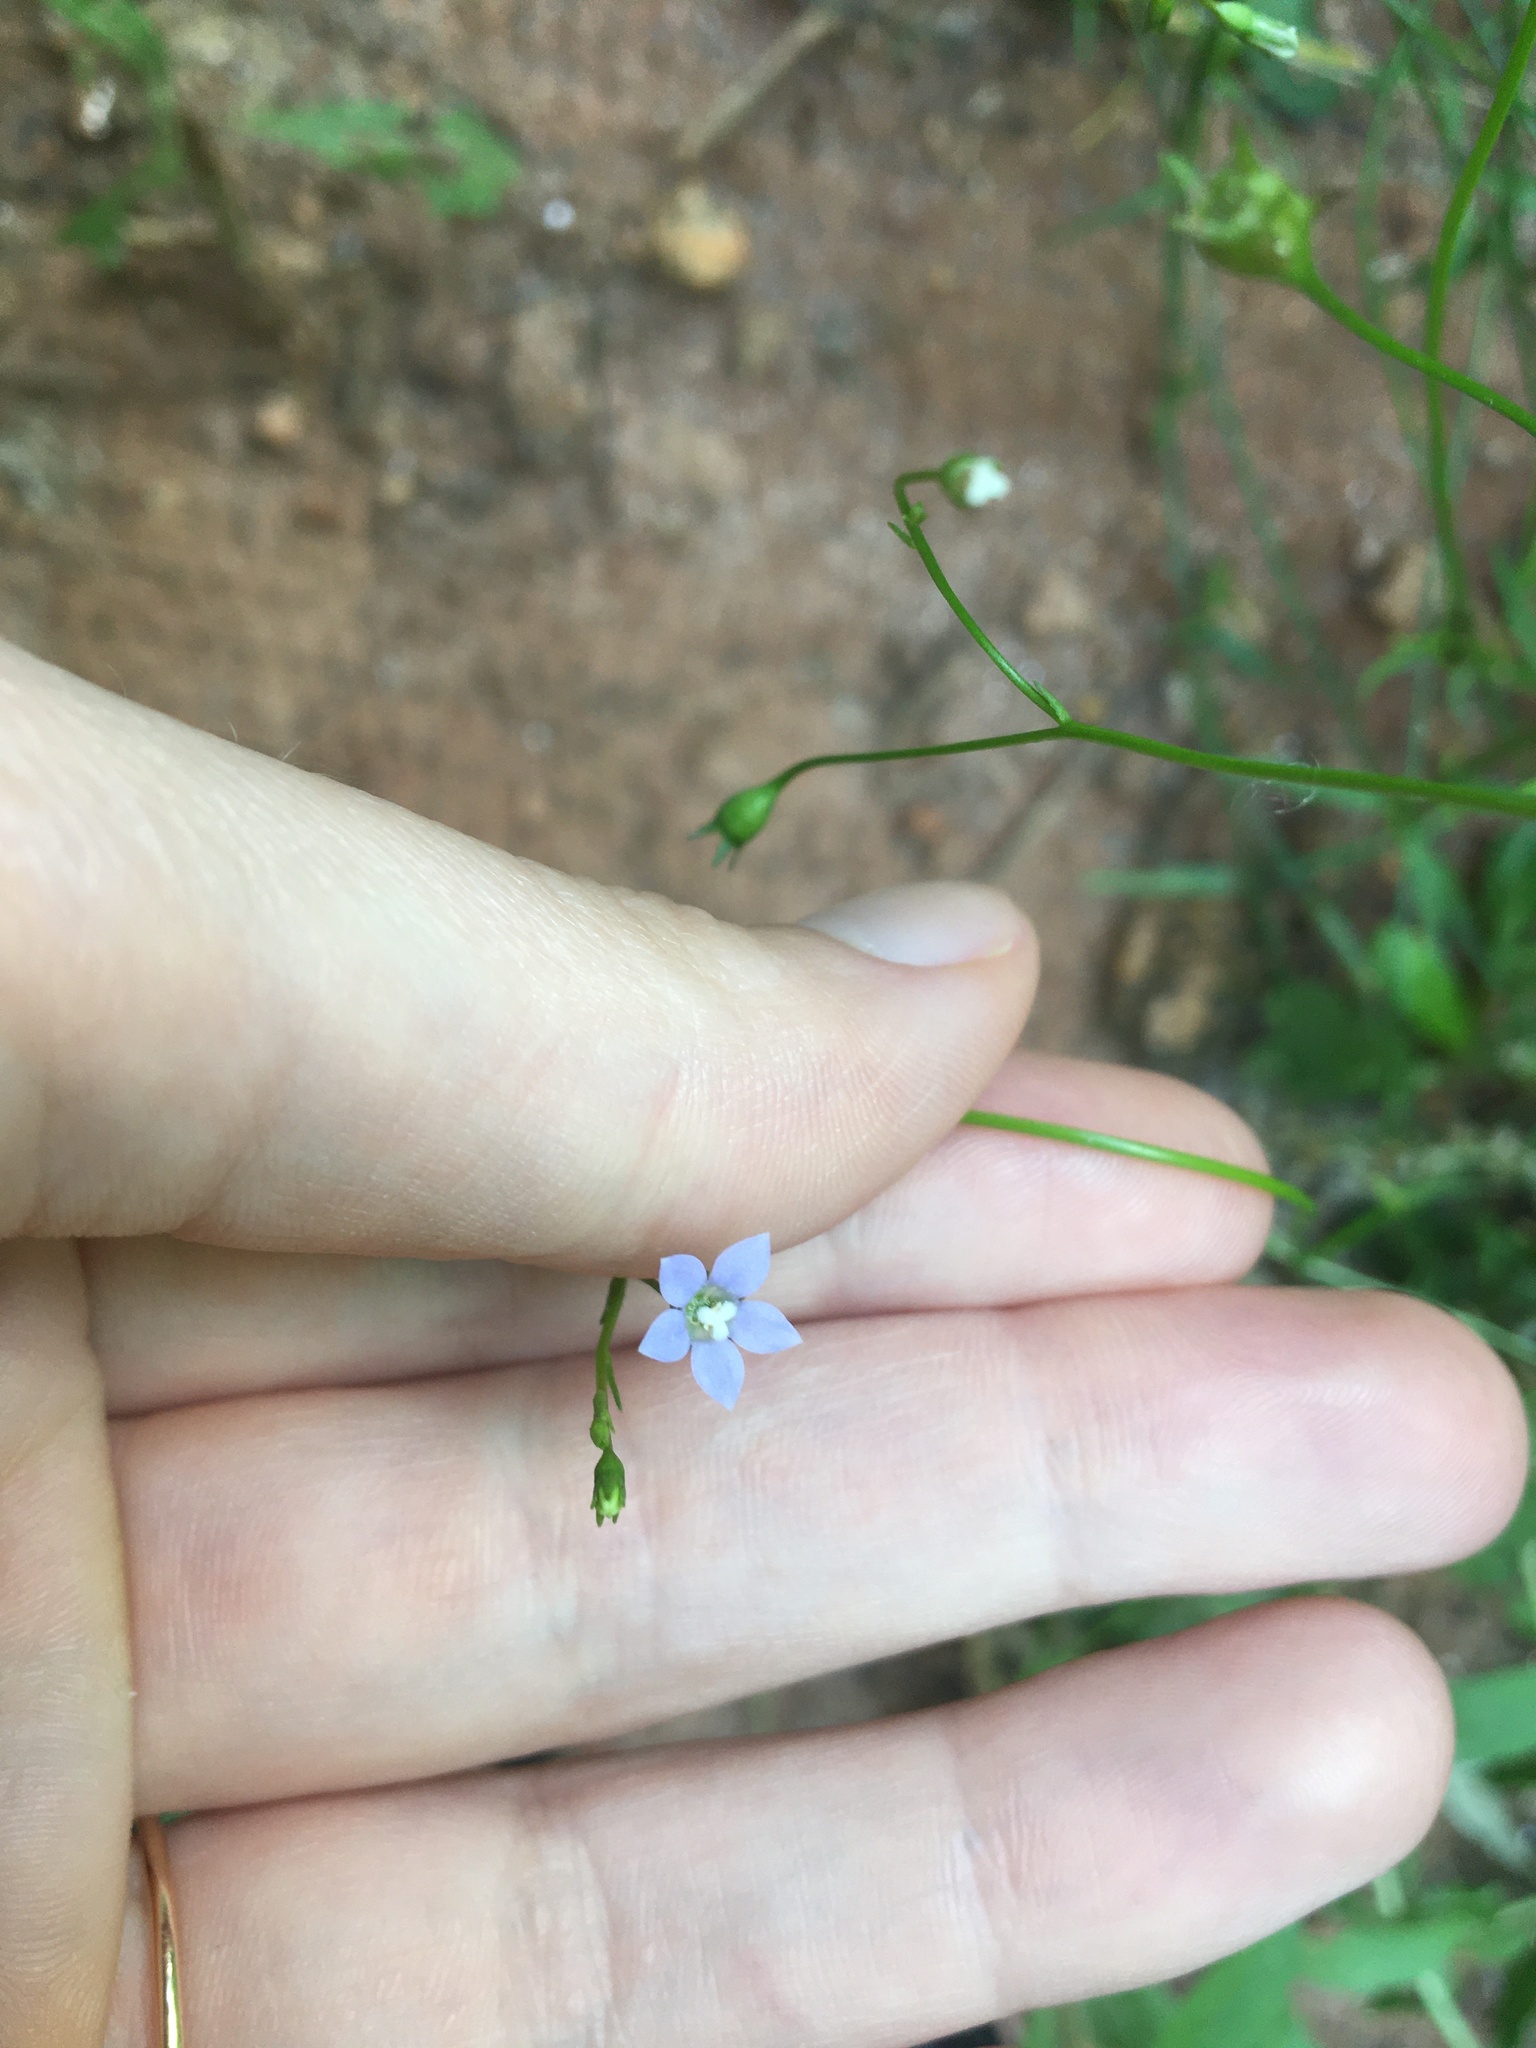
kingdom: Plantae
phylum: Tracheophyta
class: Magnoliopsida
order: Asterales
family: Campanulaceae
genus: Wahlenbergia
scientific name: Wahlenbergia marginata
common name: Southern rockbell
